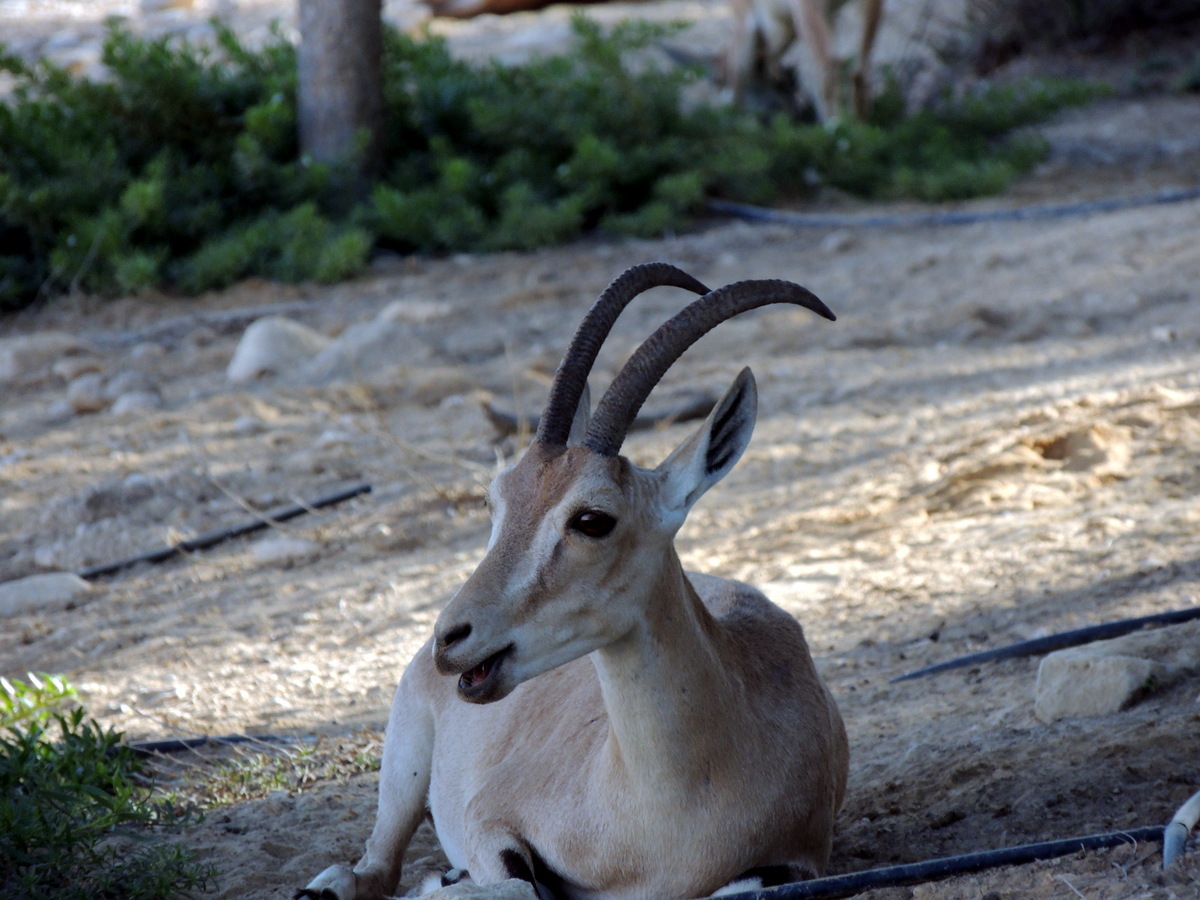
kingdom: Animalia
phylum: Chordata
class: Mammalia
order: Artiodactyla
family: Bovidae
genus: Capra
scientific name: Capra nubiana
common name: Nubian ibex
